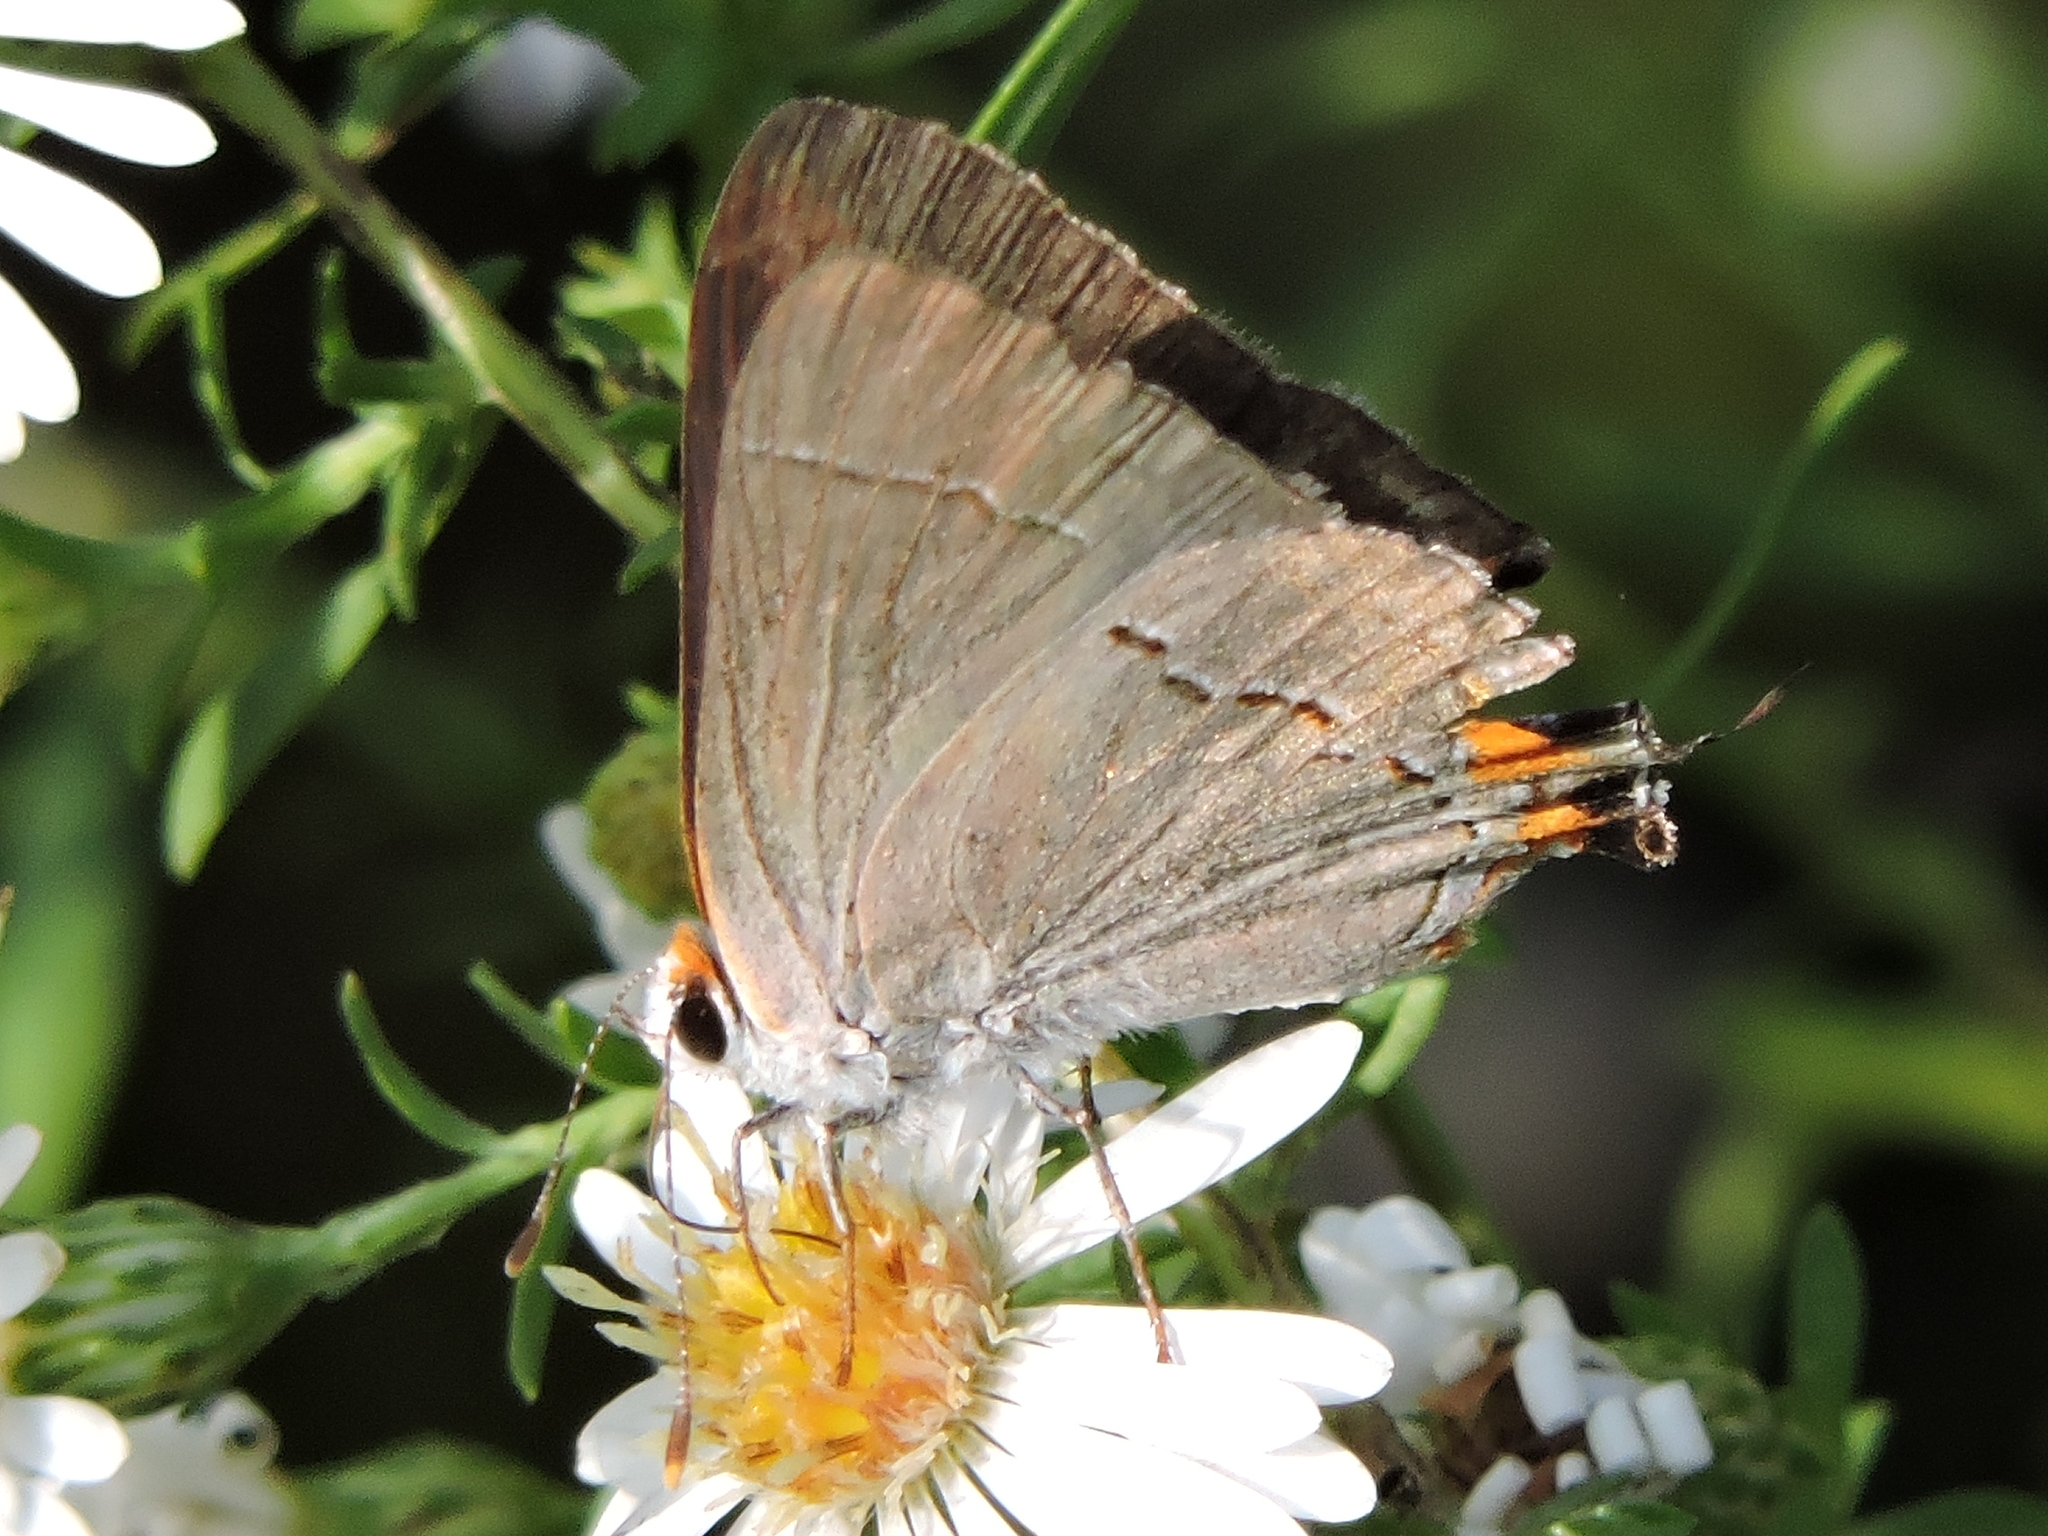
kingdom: Animalia
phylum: Arthropoda
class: Insecta
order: Lepidoptera
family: Lycaenidae
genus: Strymon
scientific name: Strymon melinus
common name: Gray hairstreak
